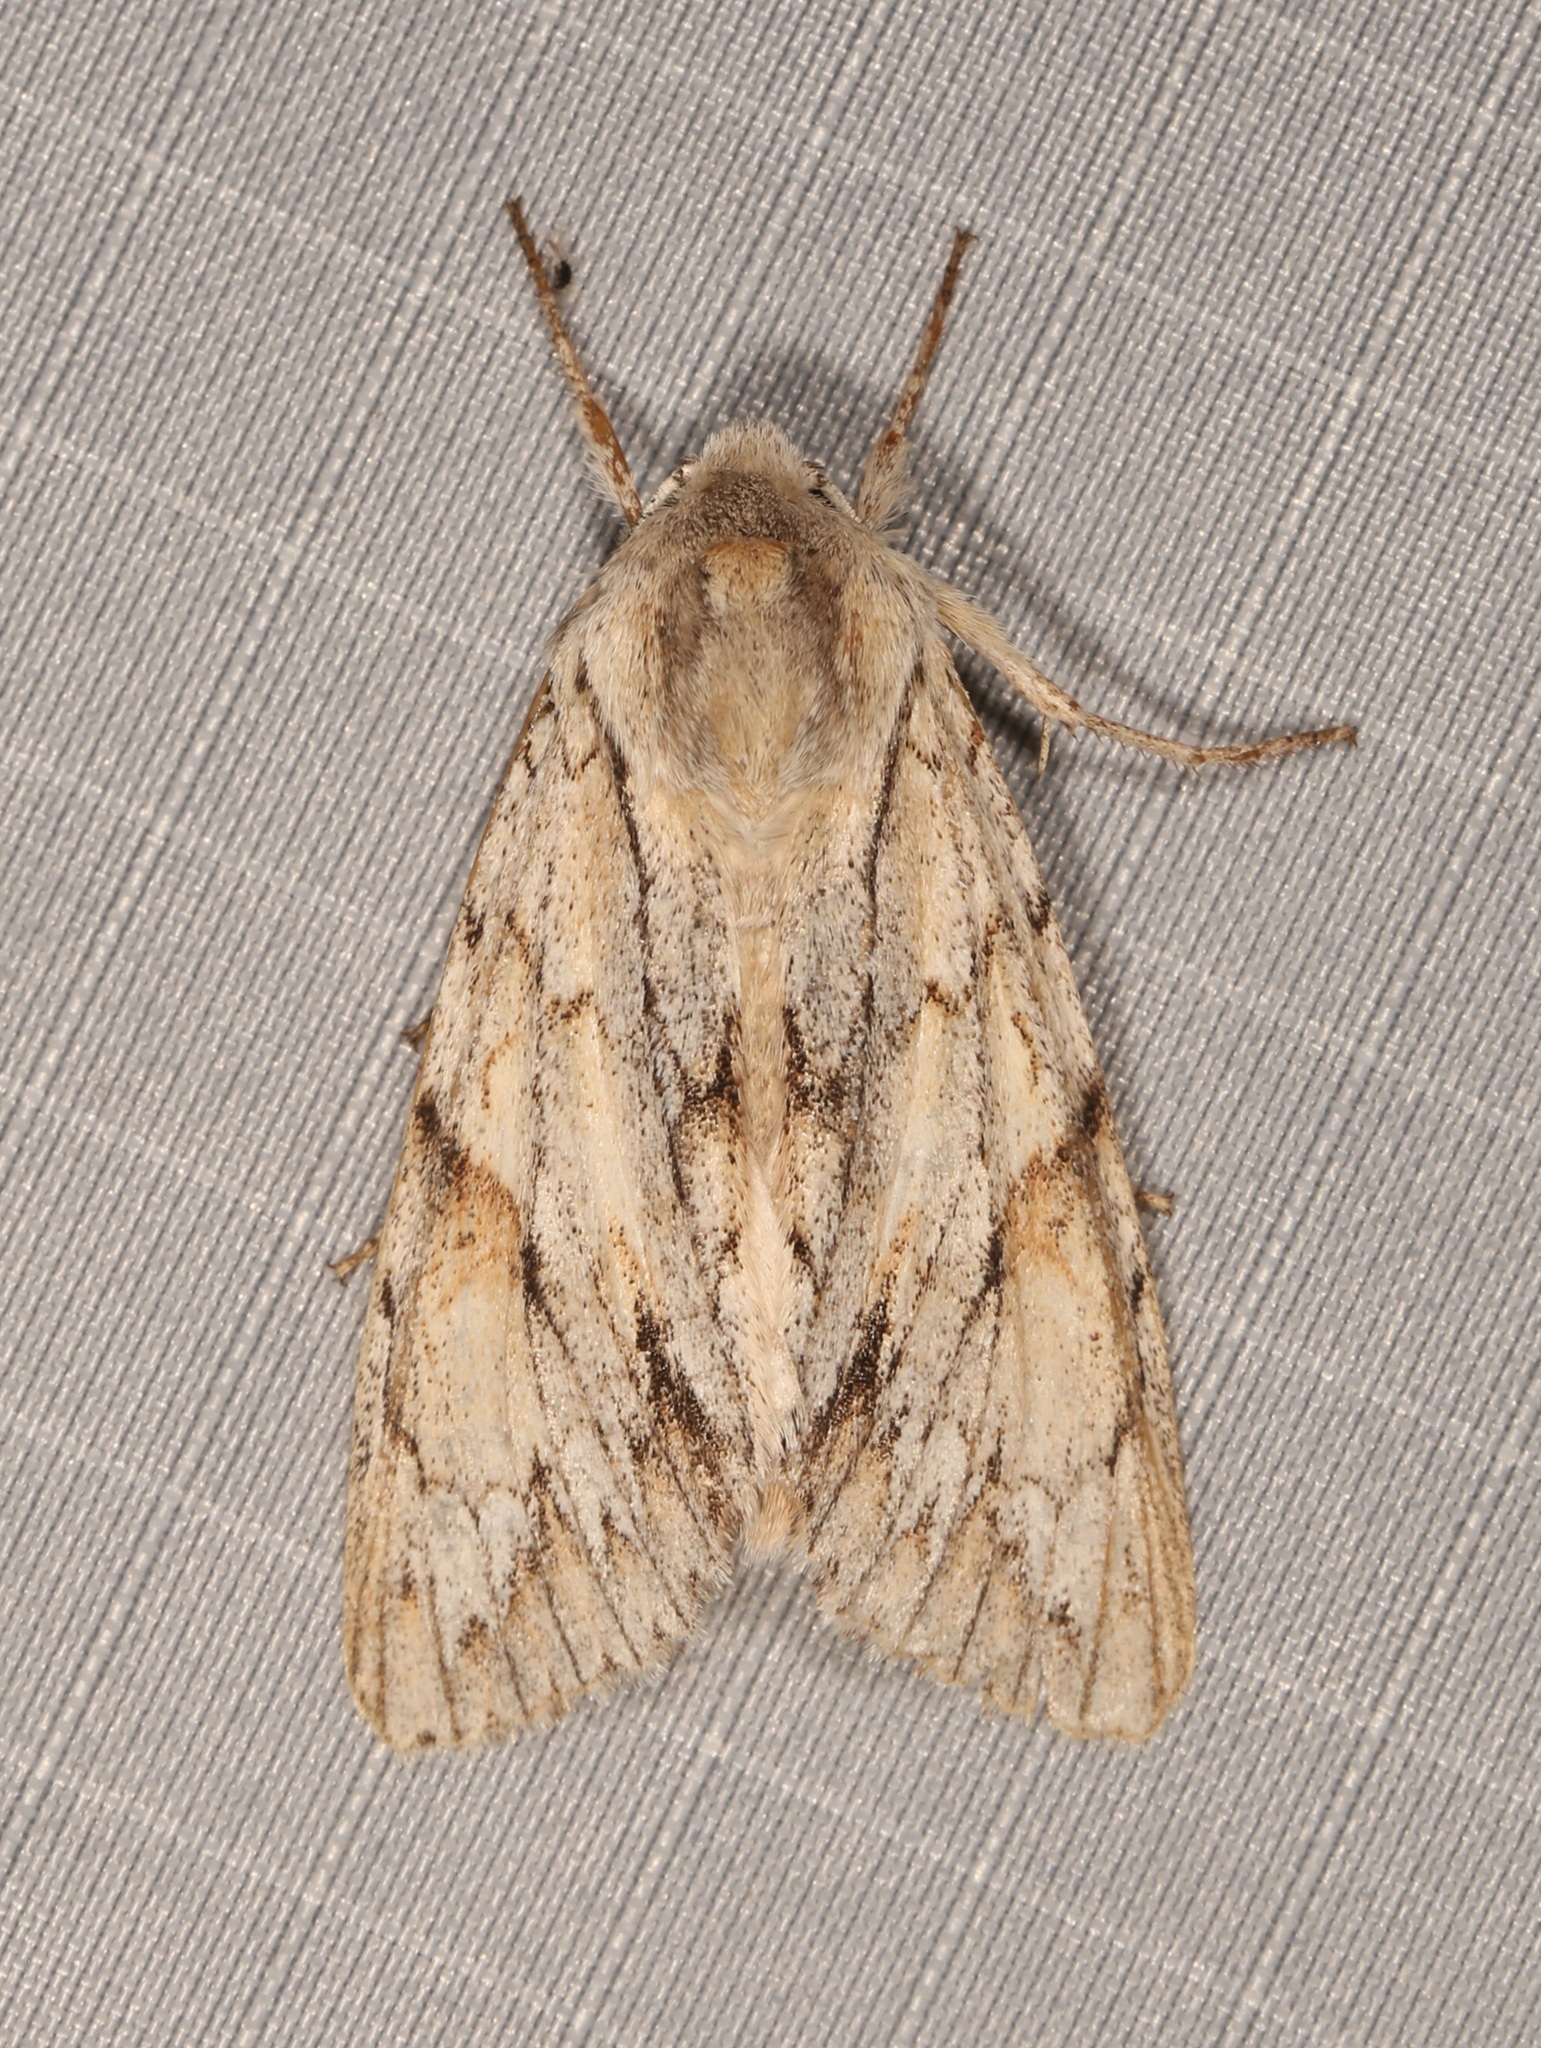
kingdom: Animalia
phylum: Arthropoda
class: Insecta
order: Lepidoptera
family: Noctuidae
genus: Andropolia
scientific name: Andropolia theodori
